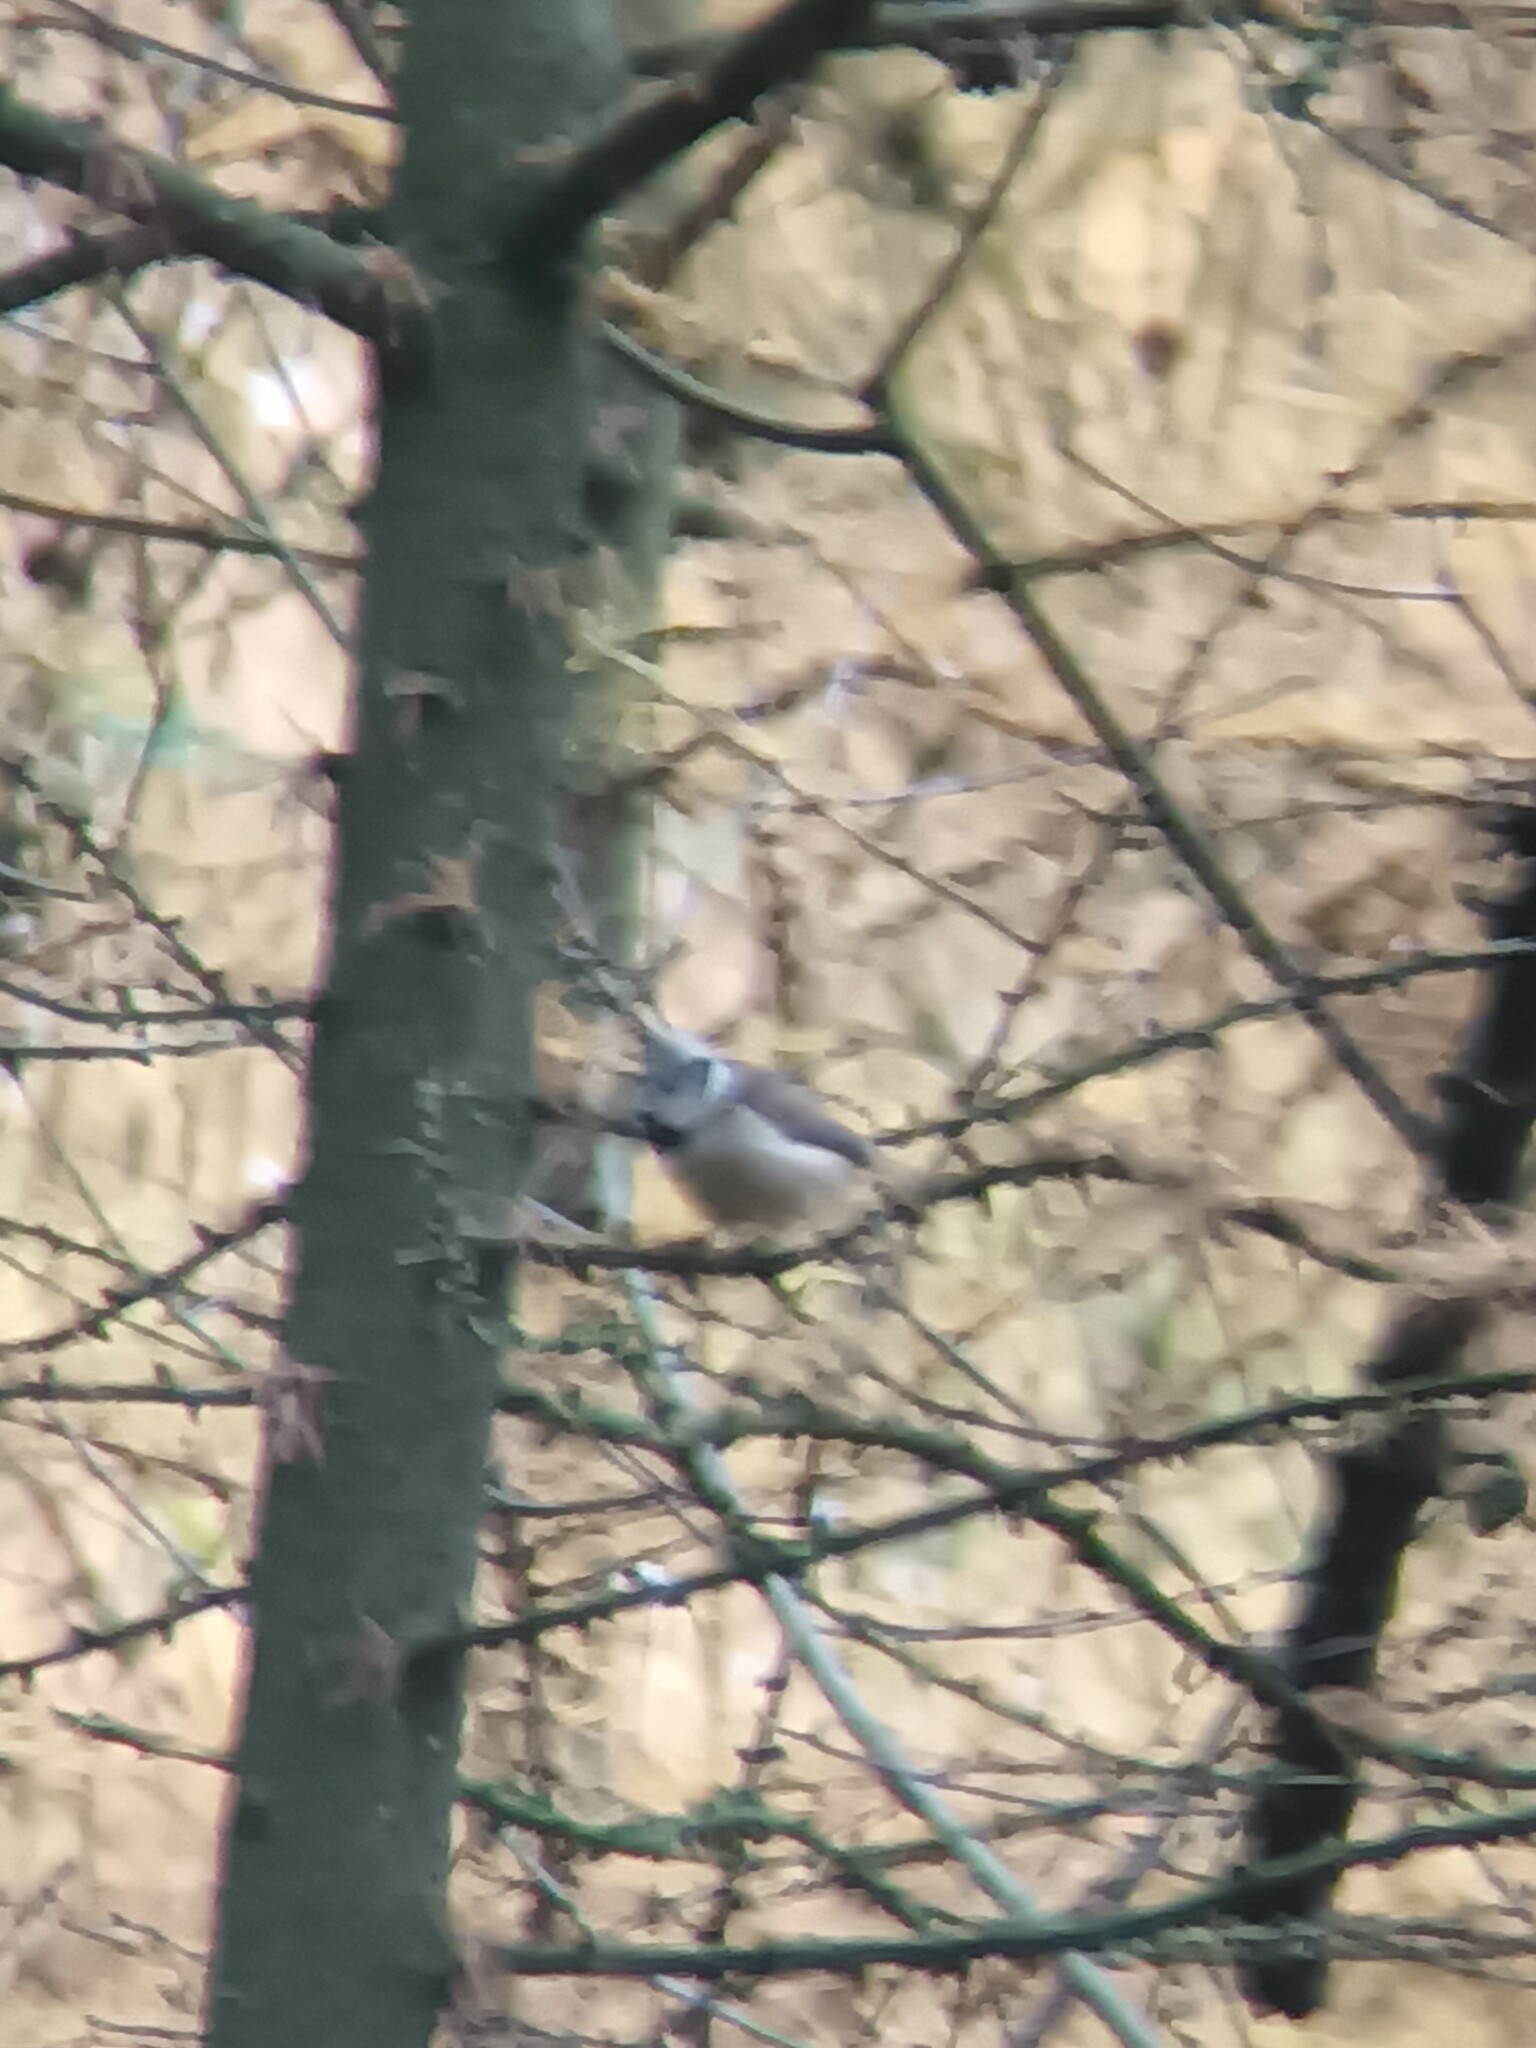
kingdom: Animalia
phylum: Chordata
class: Aves
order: Passeriformes
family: Paridae
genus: Lophophanes
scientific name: Lophophanes cristatus
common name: European crested tit
